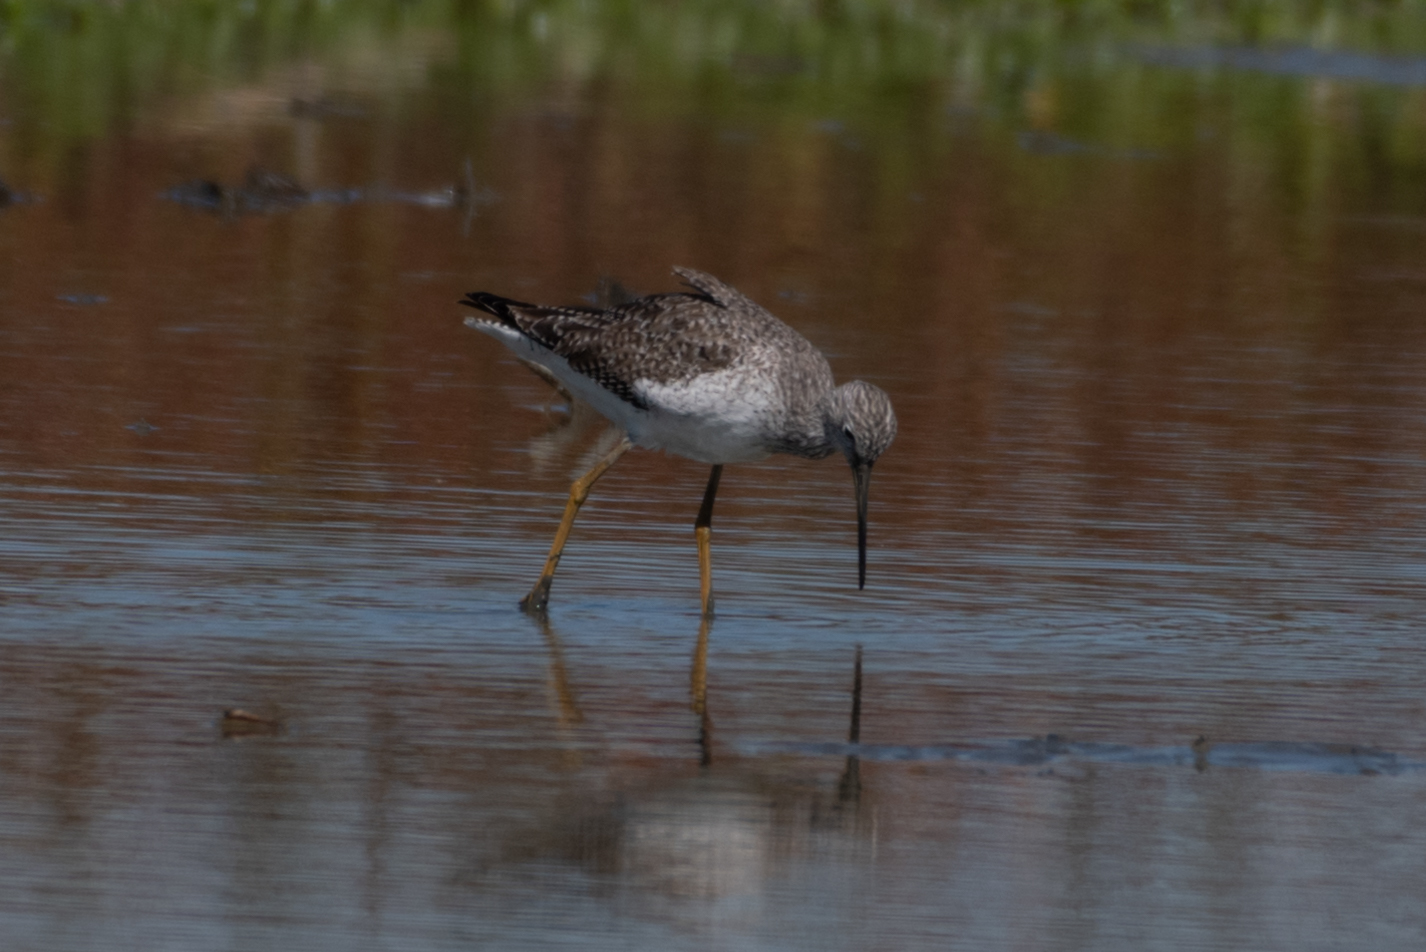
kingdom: Animalia
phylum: Chordata
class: Aves
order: Charadriiformes
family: Scolopacidae
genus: Tringa
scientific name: Tringa melanoleuca
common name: Greater yellowlegs
